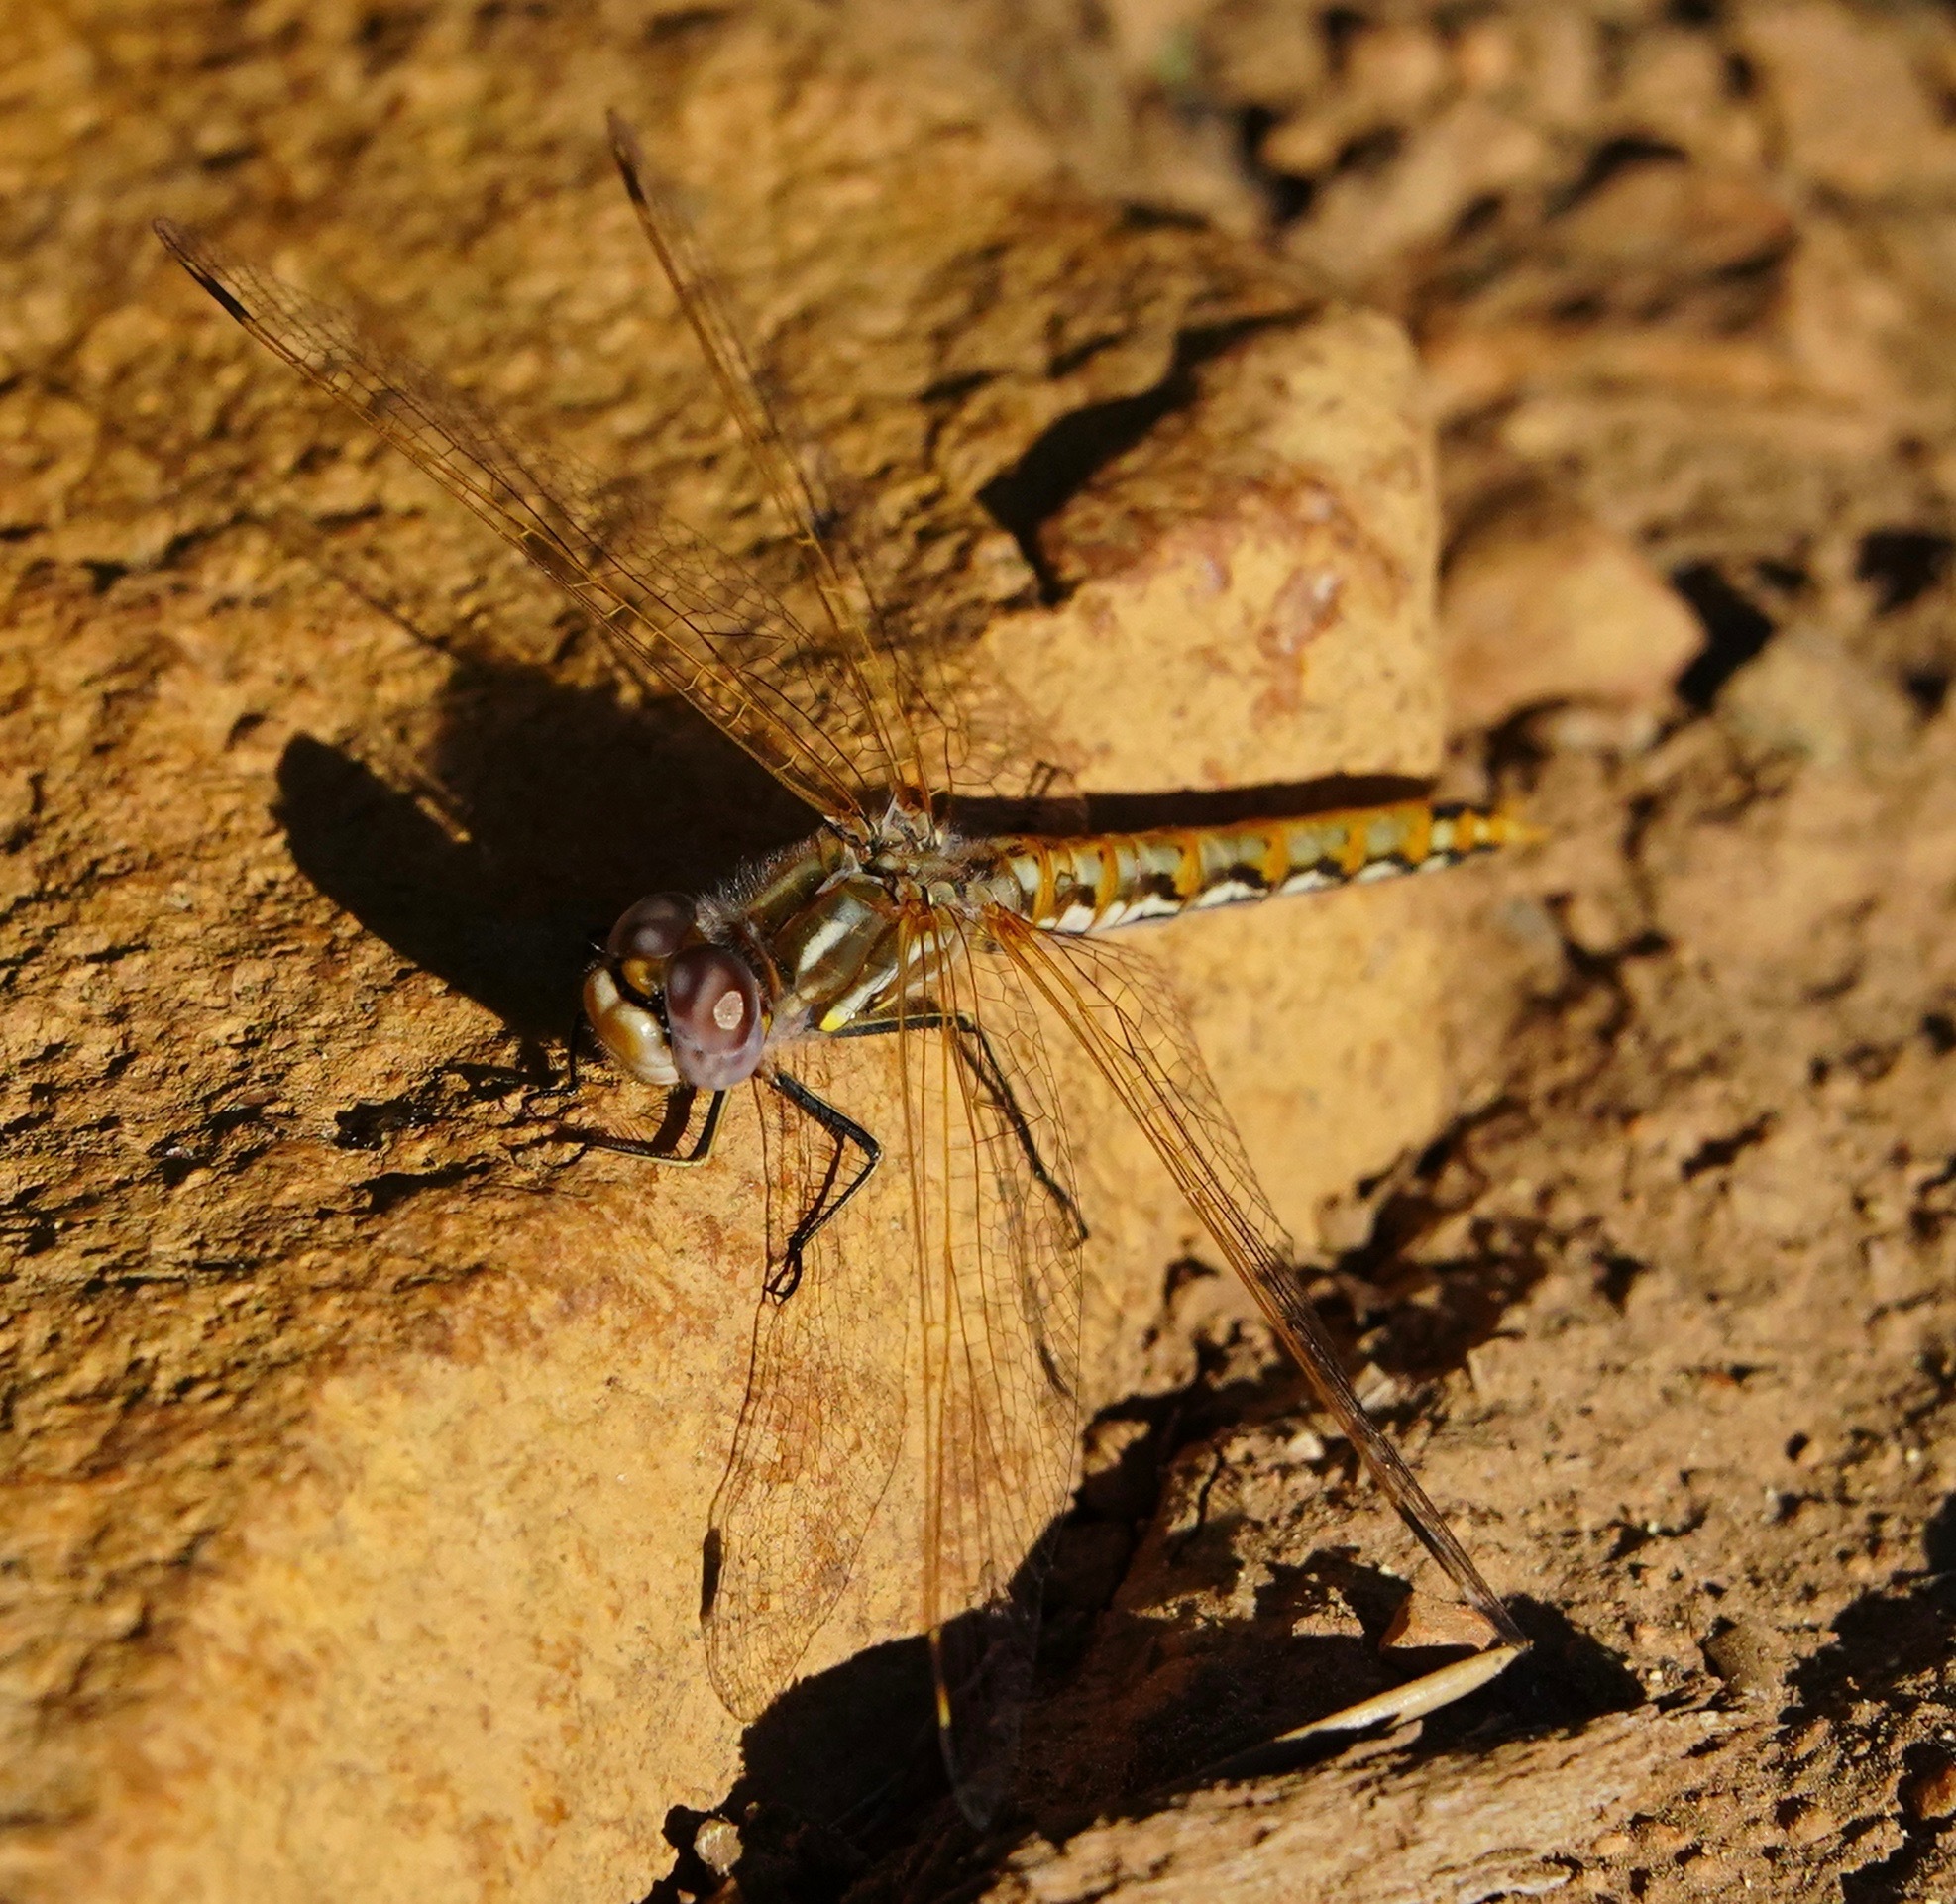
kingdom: Animalia
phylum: Arthropoda
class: Insecta
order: Odonata
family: Libellulidae
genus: Sympetrum
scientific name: Sympetrum corruptum
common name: Variegated meadowhawk
